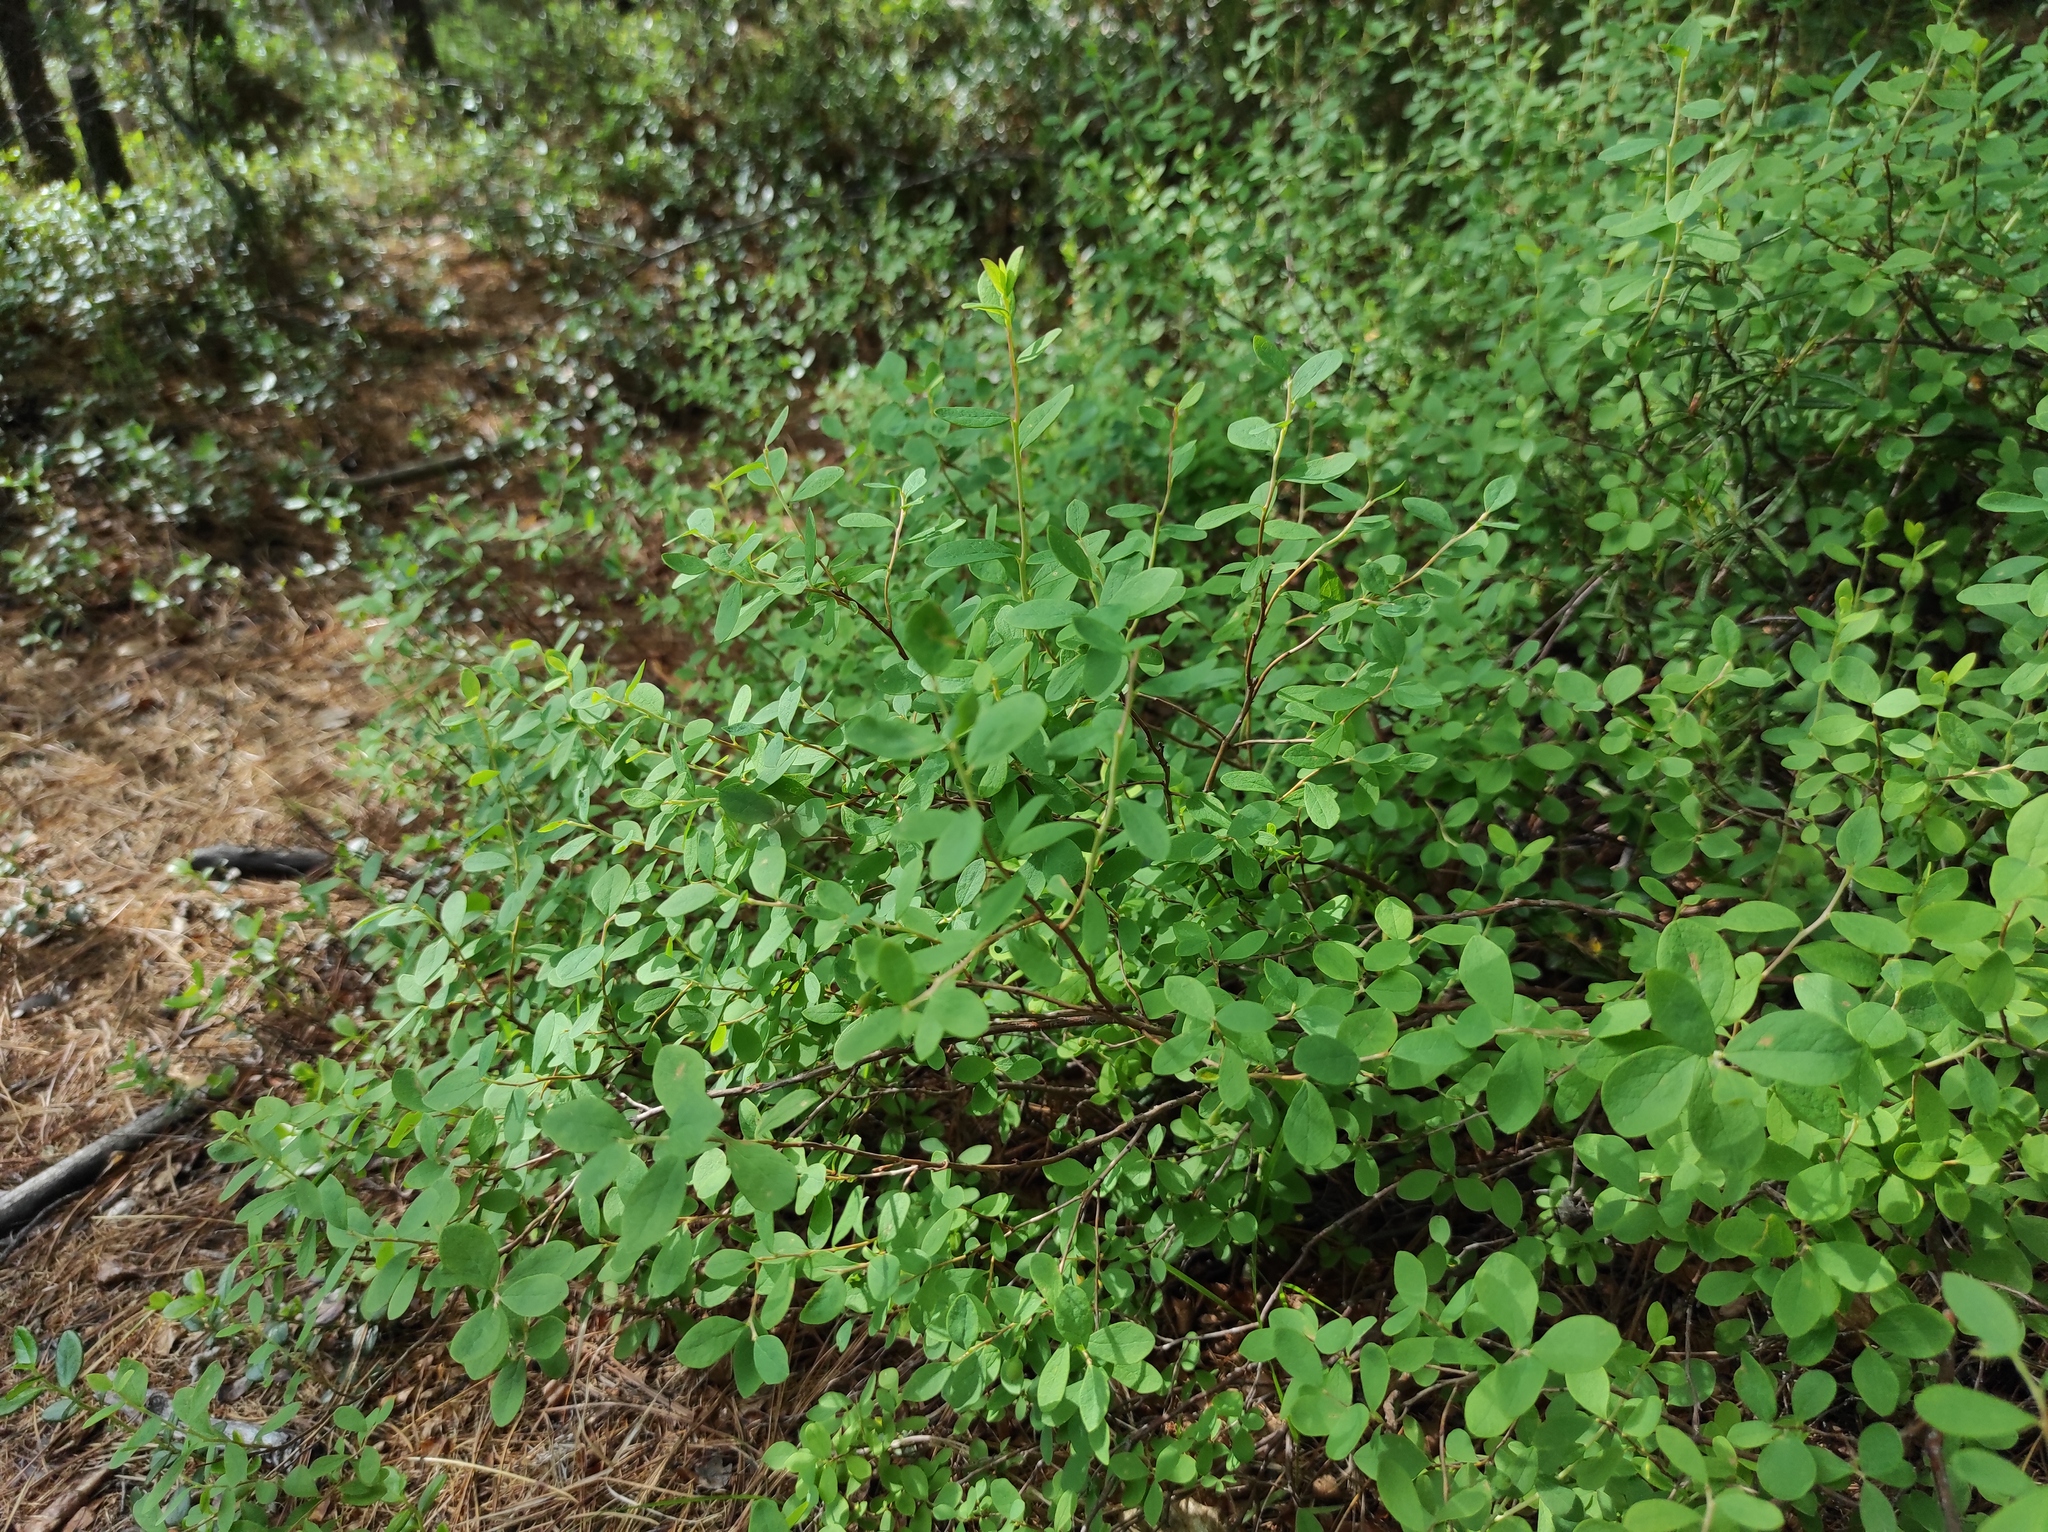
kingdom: Plantae
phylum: Tracheophyta
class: Magnoliopsida
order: Ericales
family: Ericaceae
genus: Vaccinium
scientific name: Vaccinium uliginosum
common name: Bog bilberry
